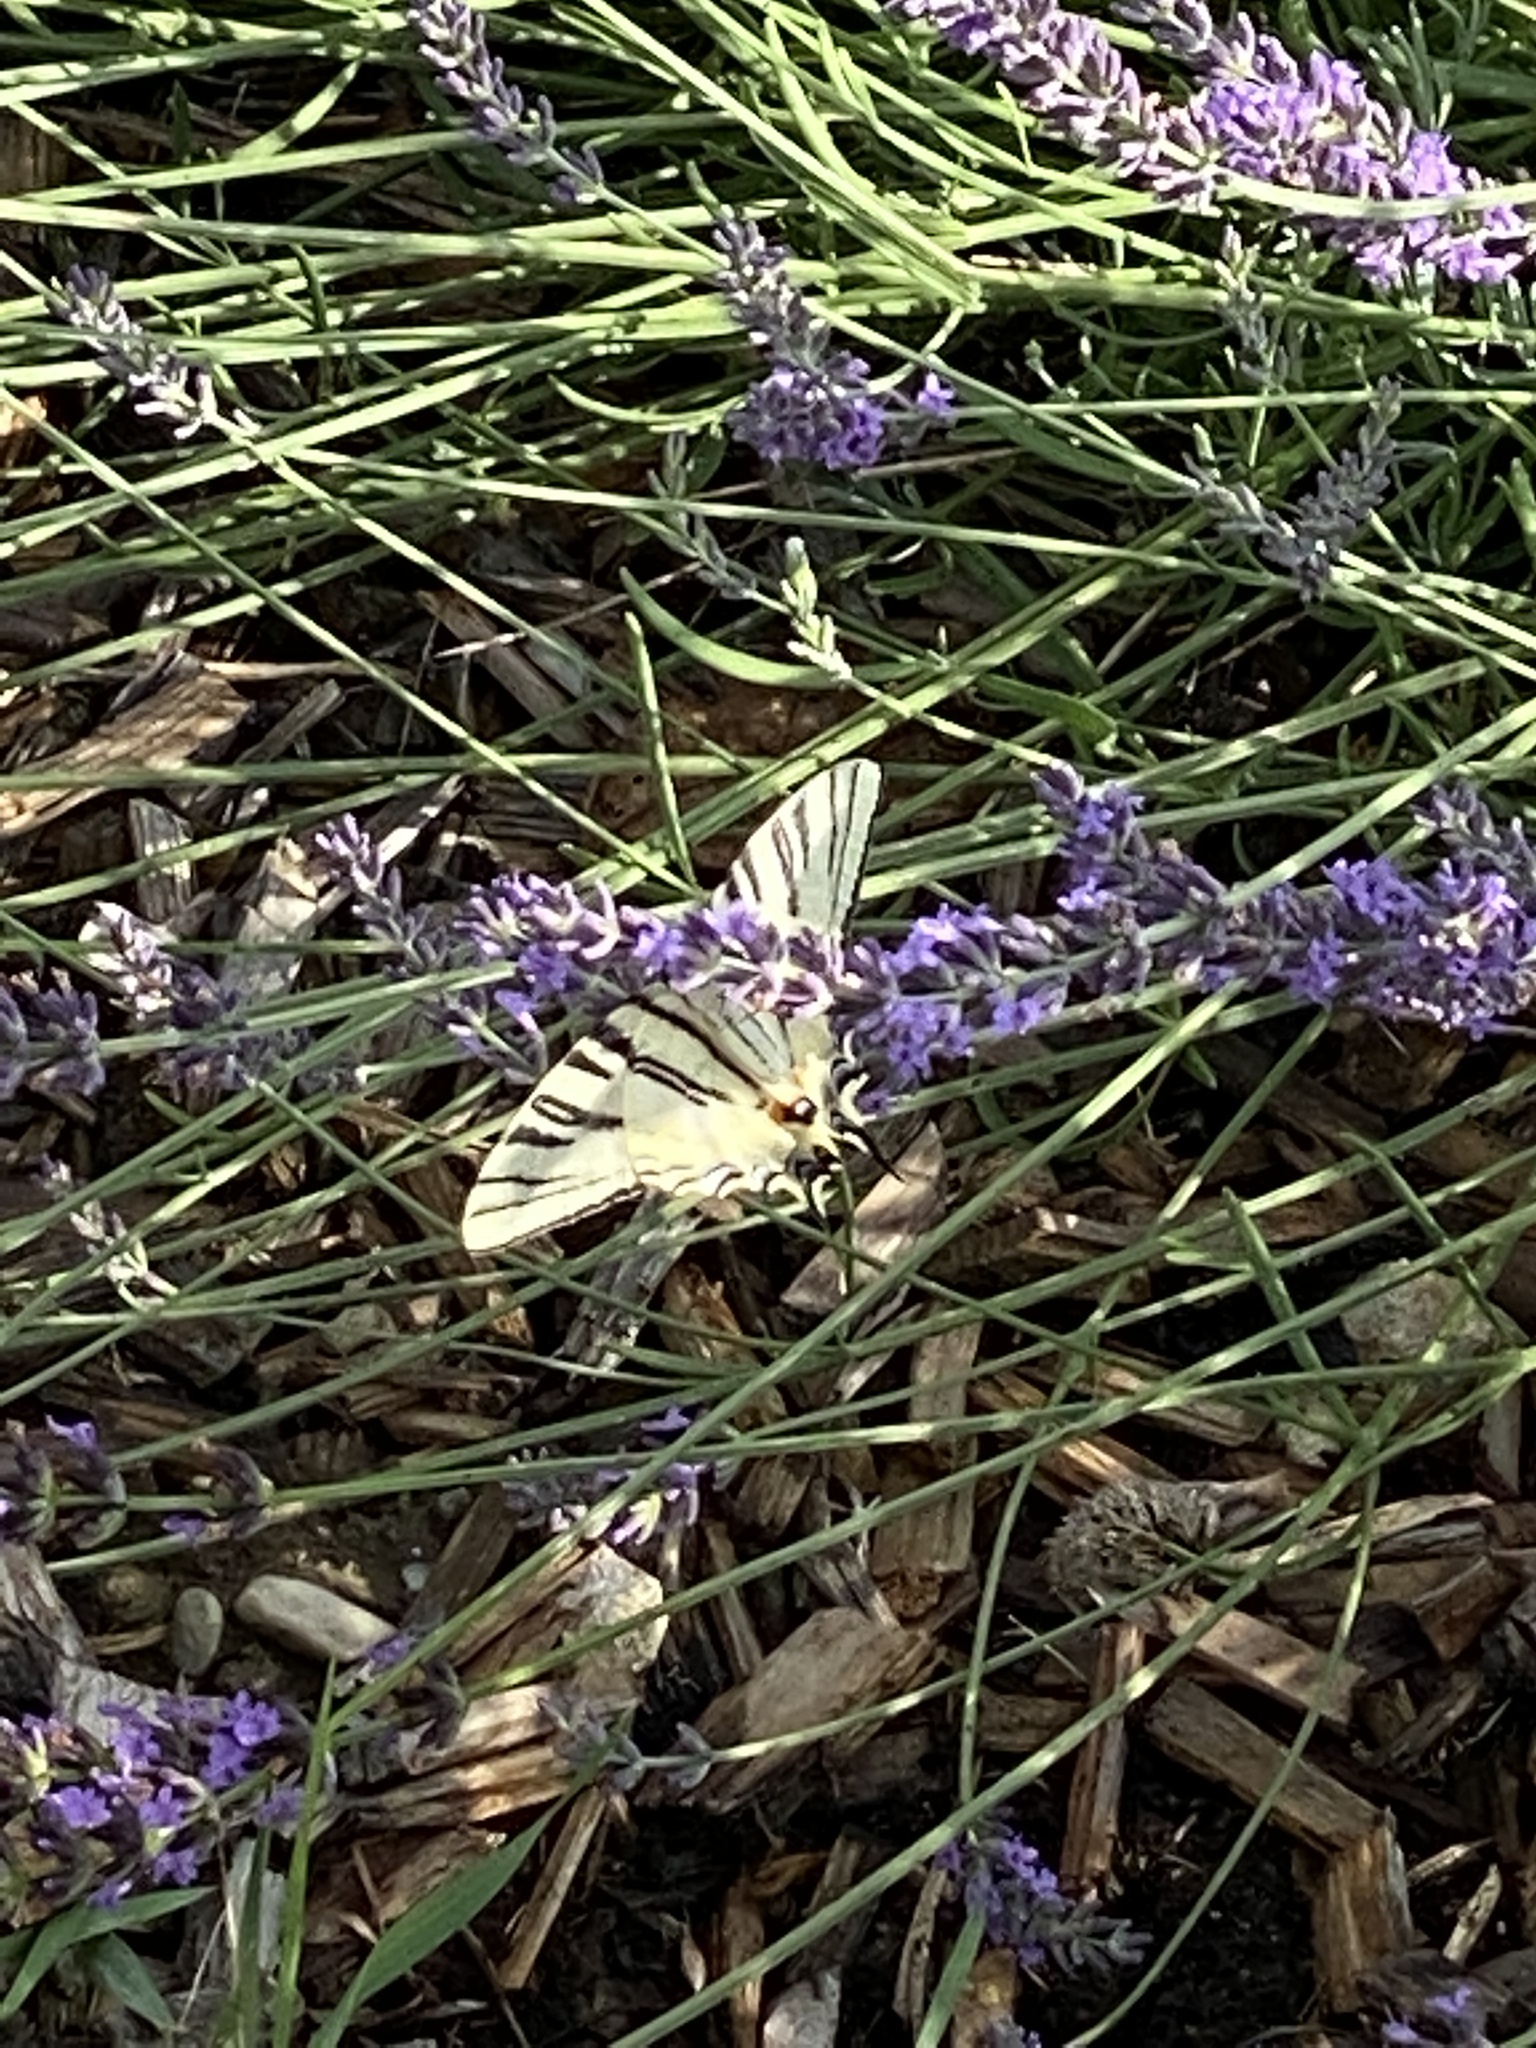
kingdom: Animalia
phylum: Arthropoda
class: Insecta
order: Lepidoptera
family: Papilionidae
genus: Iphiclides
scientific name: Iphiclides podalirius
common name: Scarce swallowtail
